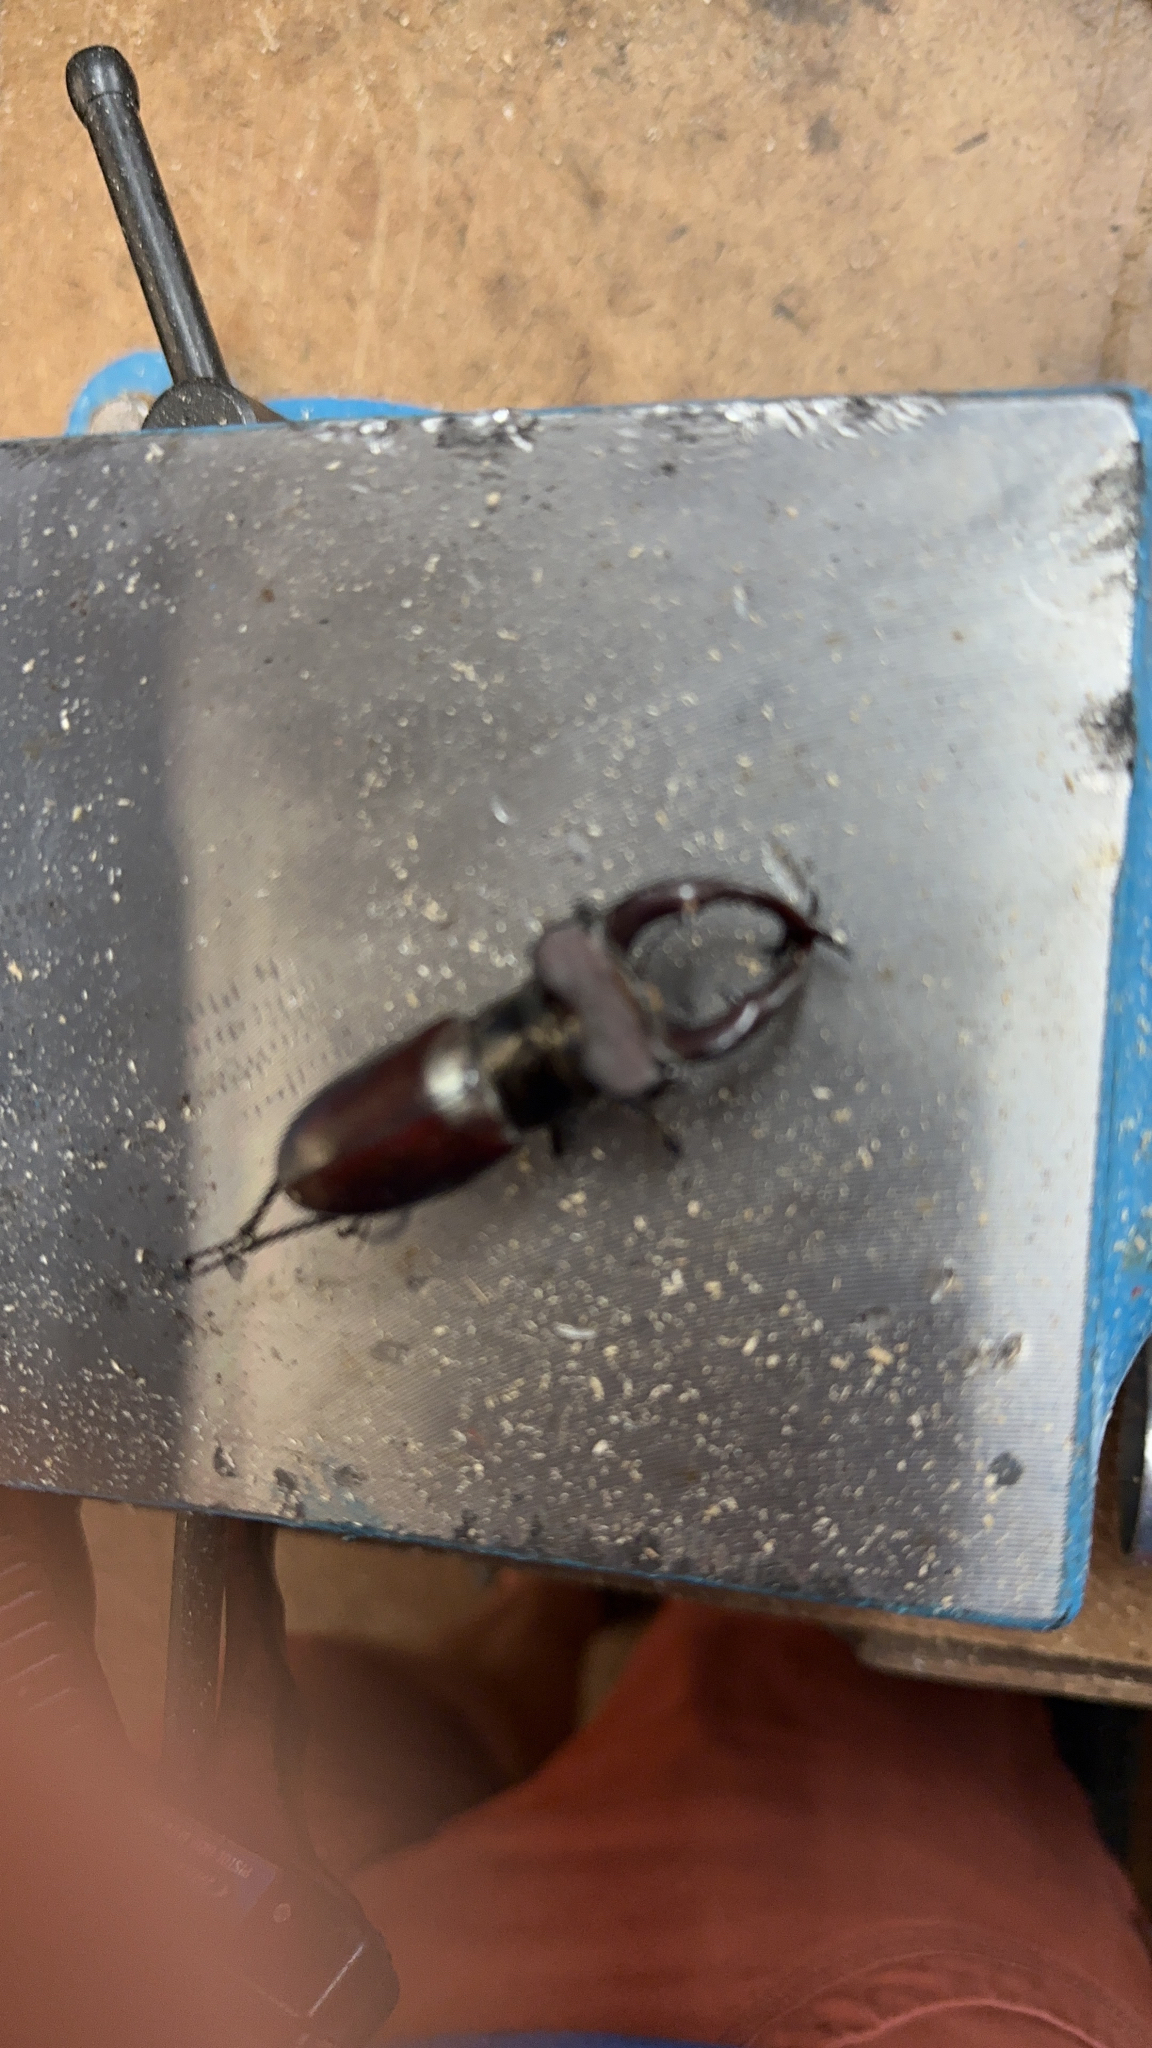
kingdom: Animalia
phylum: Arthropoda
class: Insecta
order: Coleoptera
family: Lucanidae
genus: Lucanus
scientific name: Lucanus elaphus
